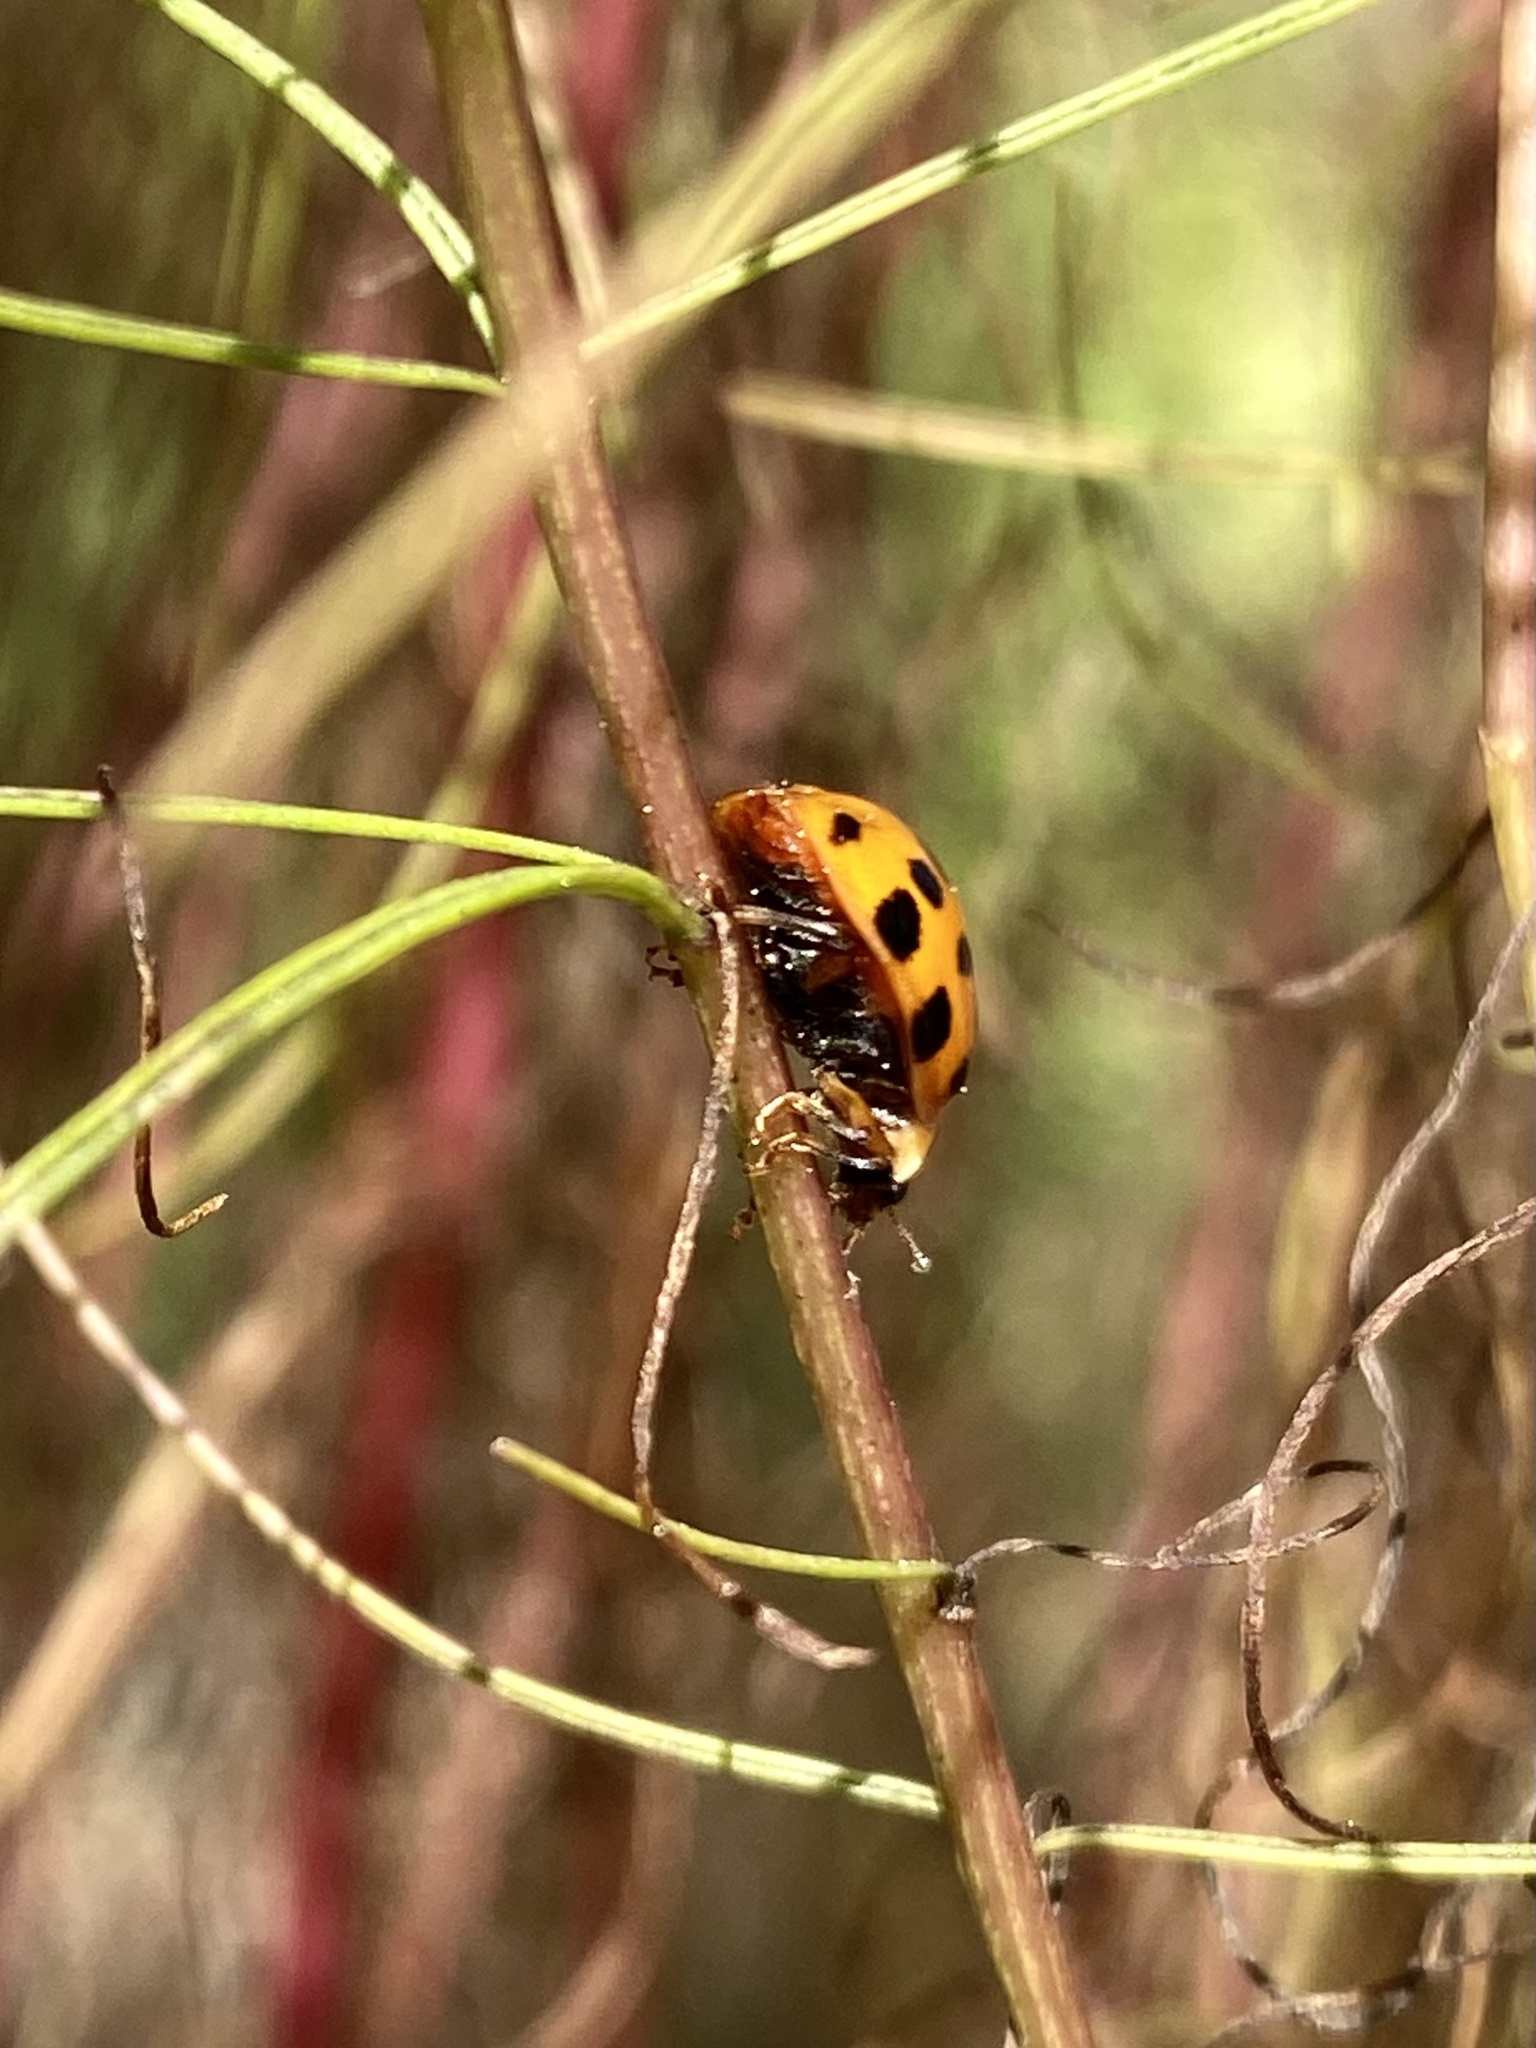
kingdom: Animalia
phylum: Arthropoda
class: Insecta
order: Coleoptera
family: Coccinellidae
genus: Harmonia
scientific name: Harmonia axyridis
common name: Harlequin ladybird
